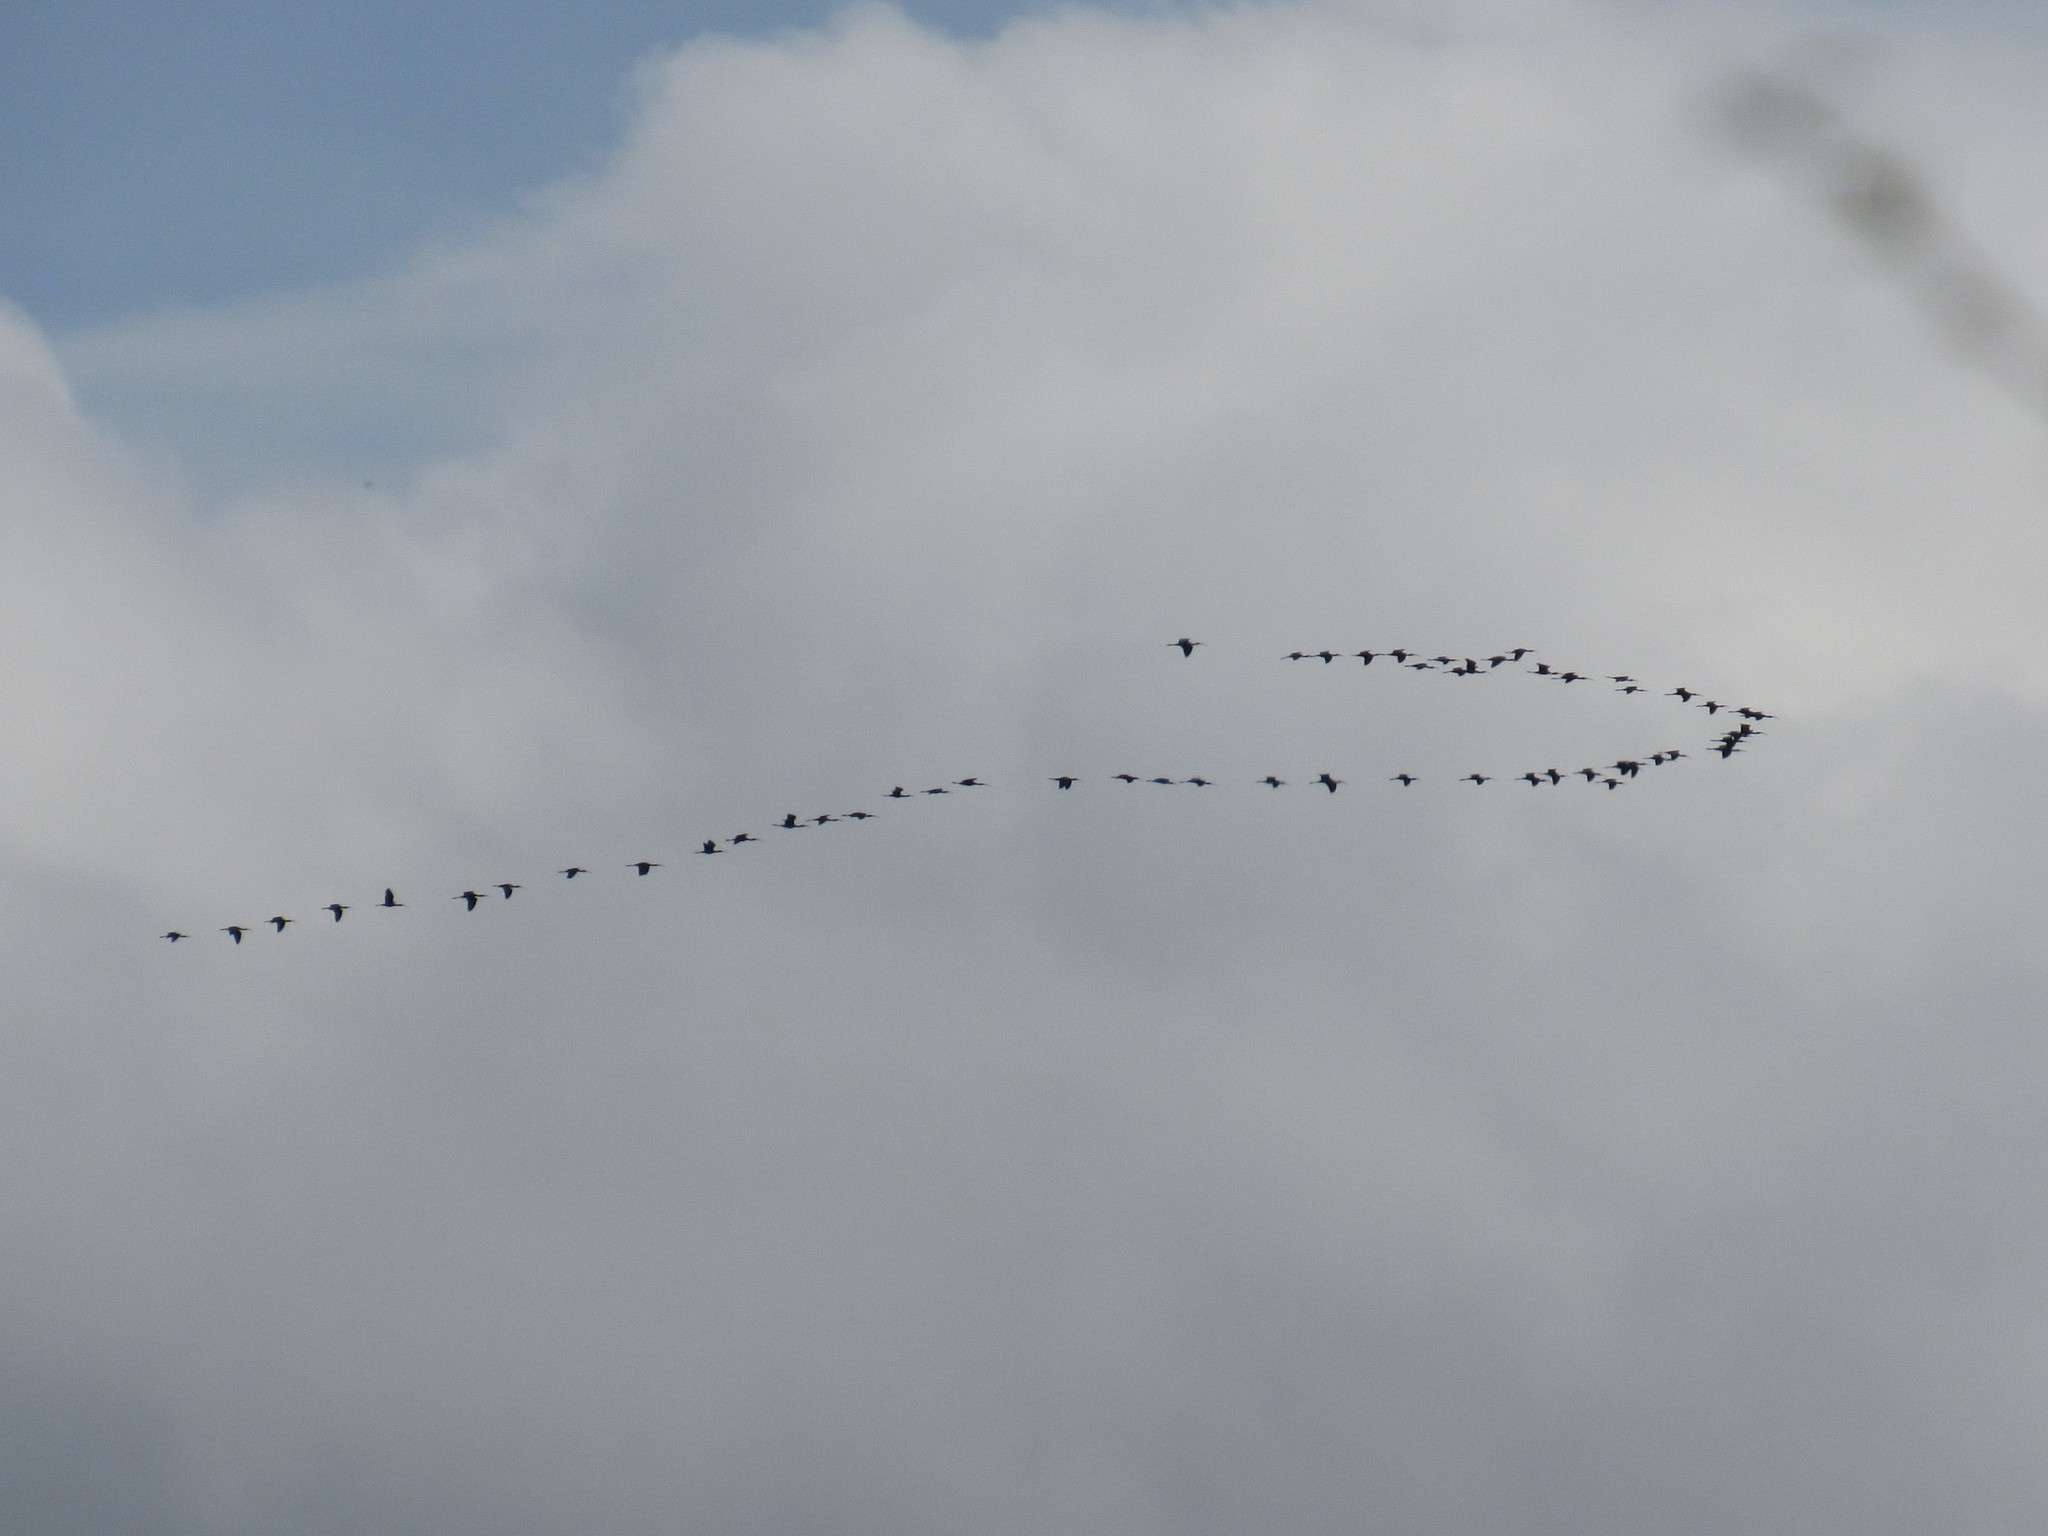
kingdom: Animalia
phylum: Chordata
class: Aves
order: Pelecaniformes
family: Threskiornithidae
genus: Plegadis
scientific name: Plegadis chihi
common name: White-faced ibis
